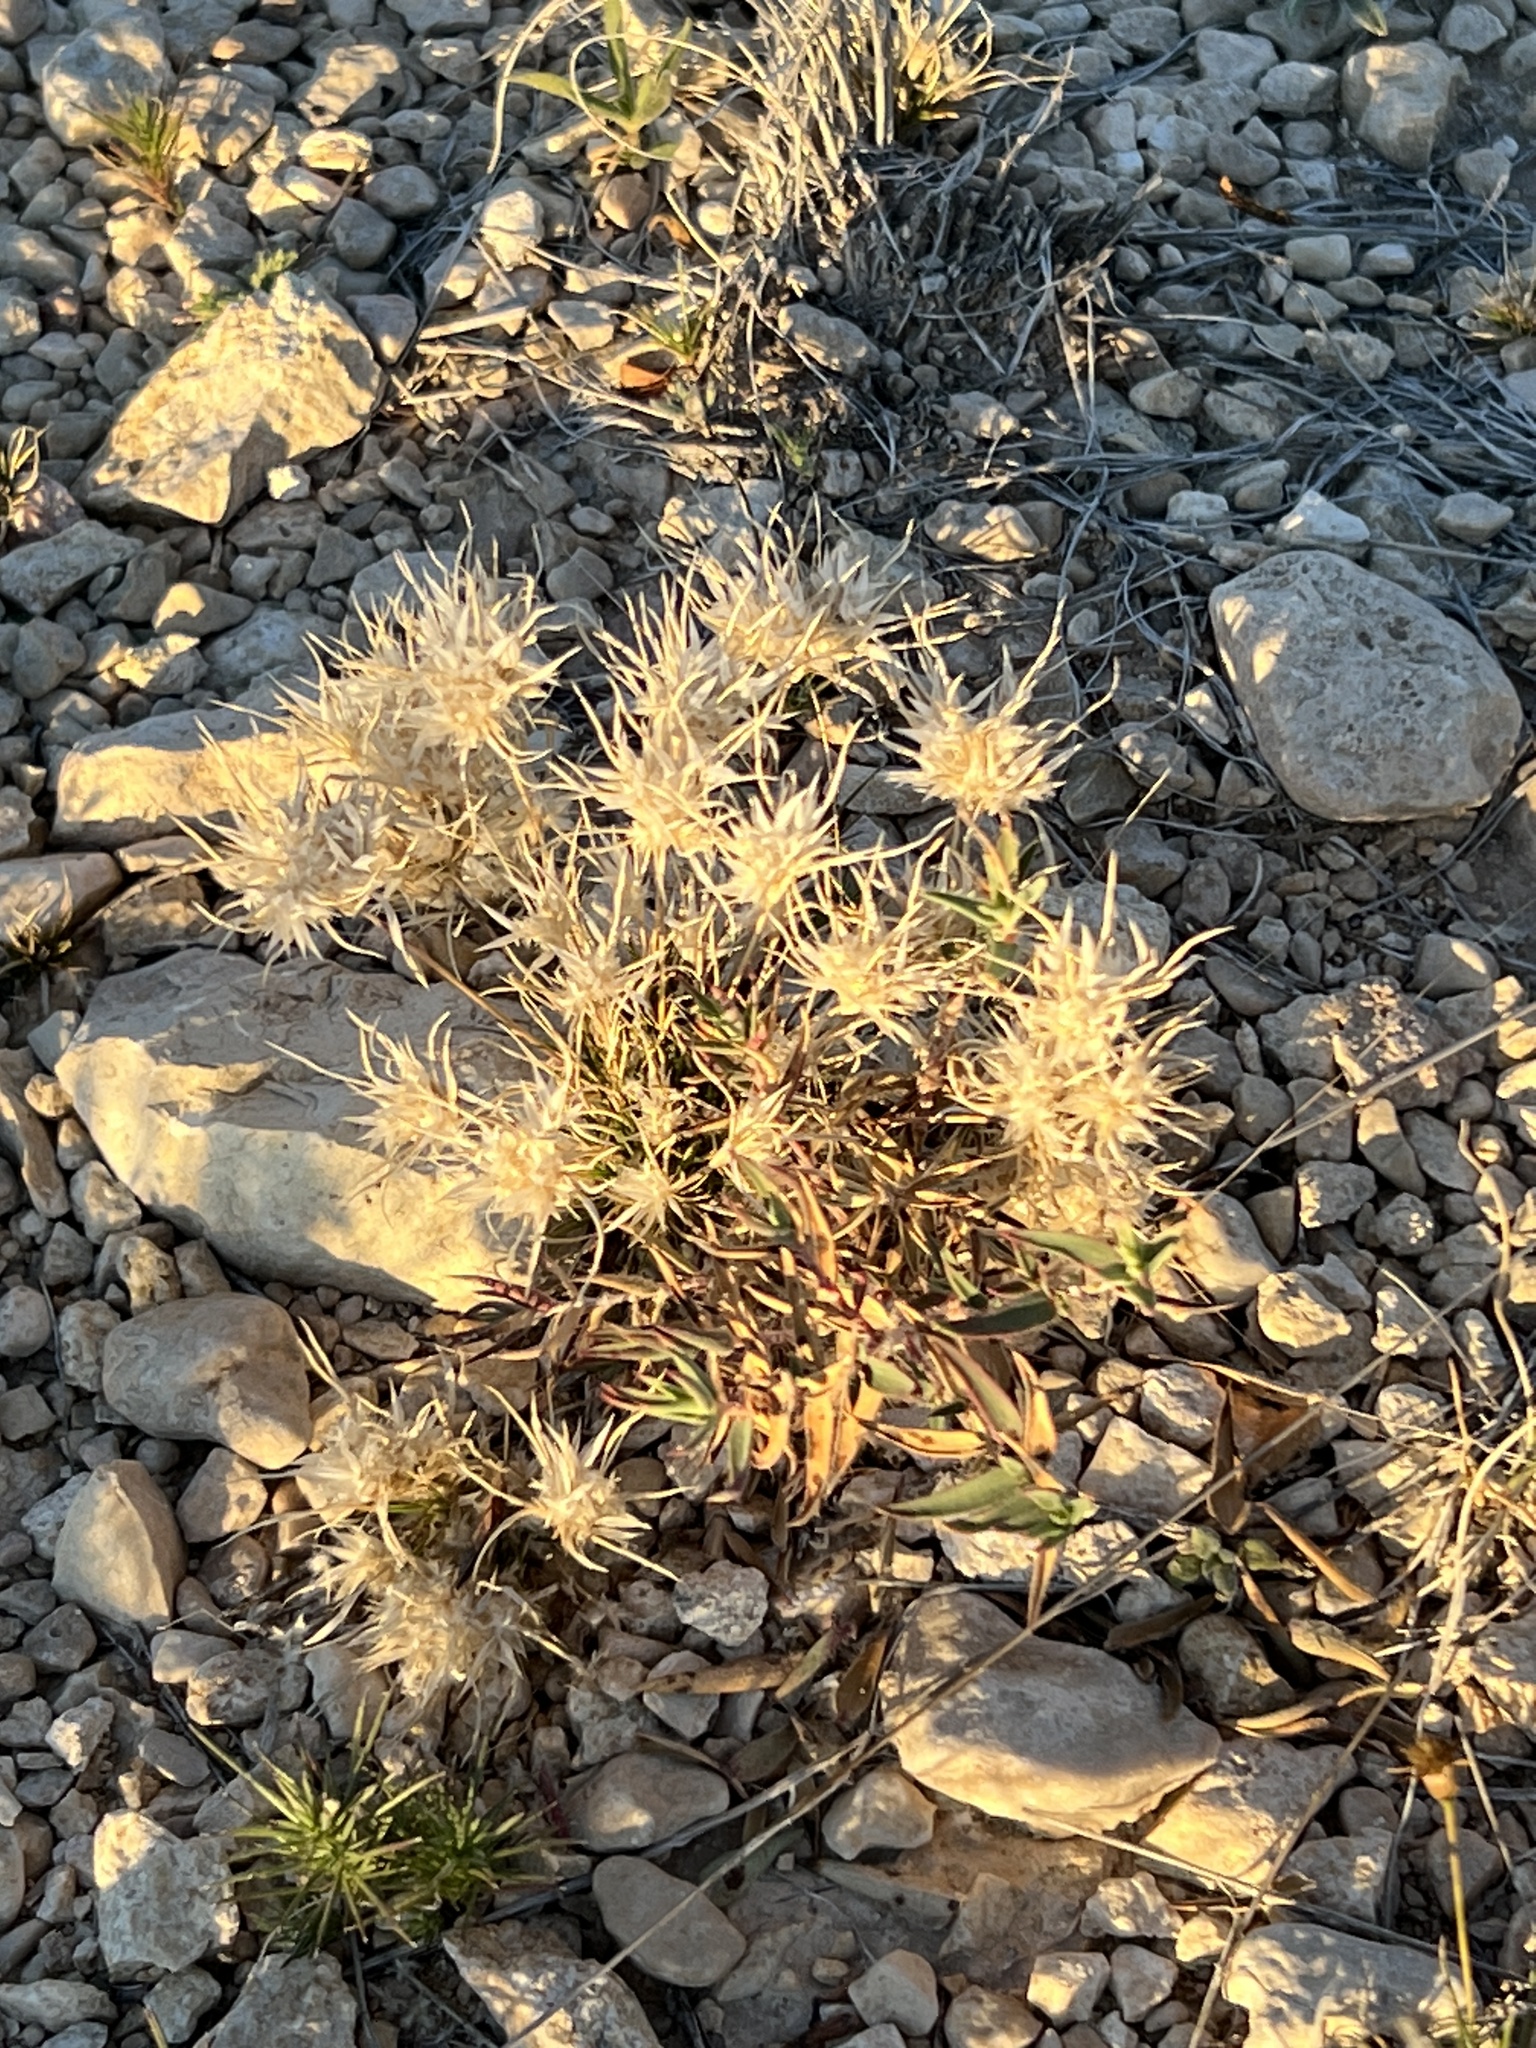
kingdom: Plantae
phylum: Tracheophyta
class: Liliopsida
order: Poales
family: Poaceae
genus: Dasyochloa
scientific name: Dasyochloa pulchella
